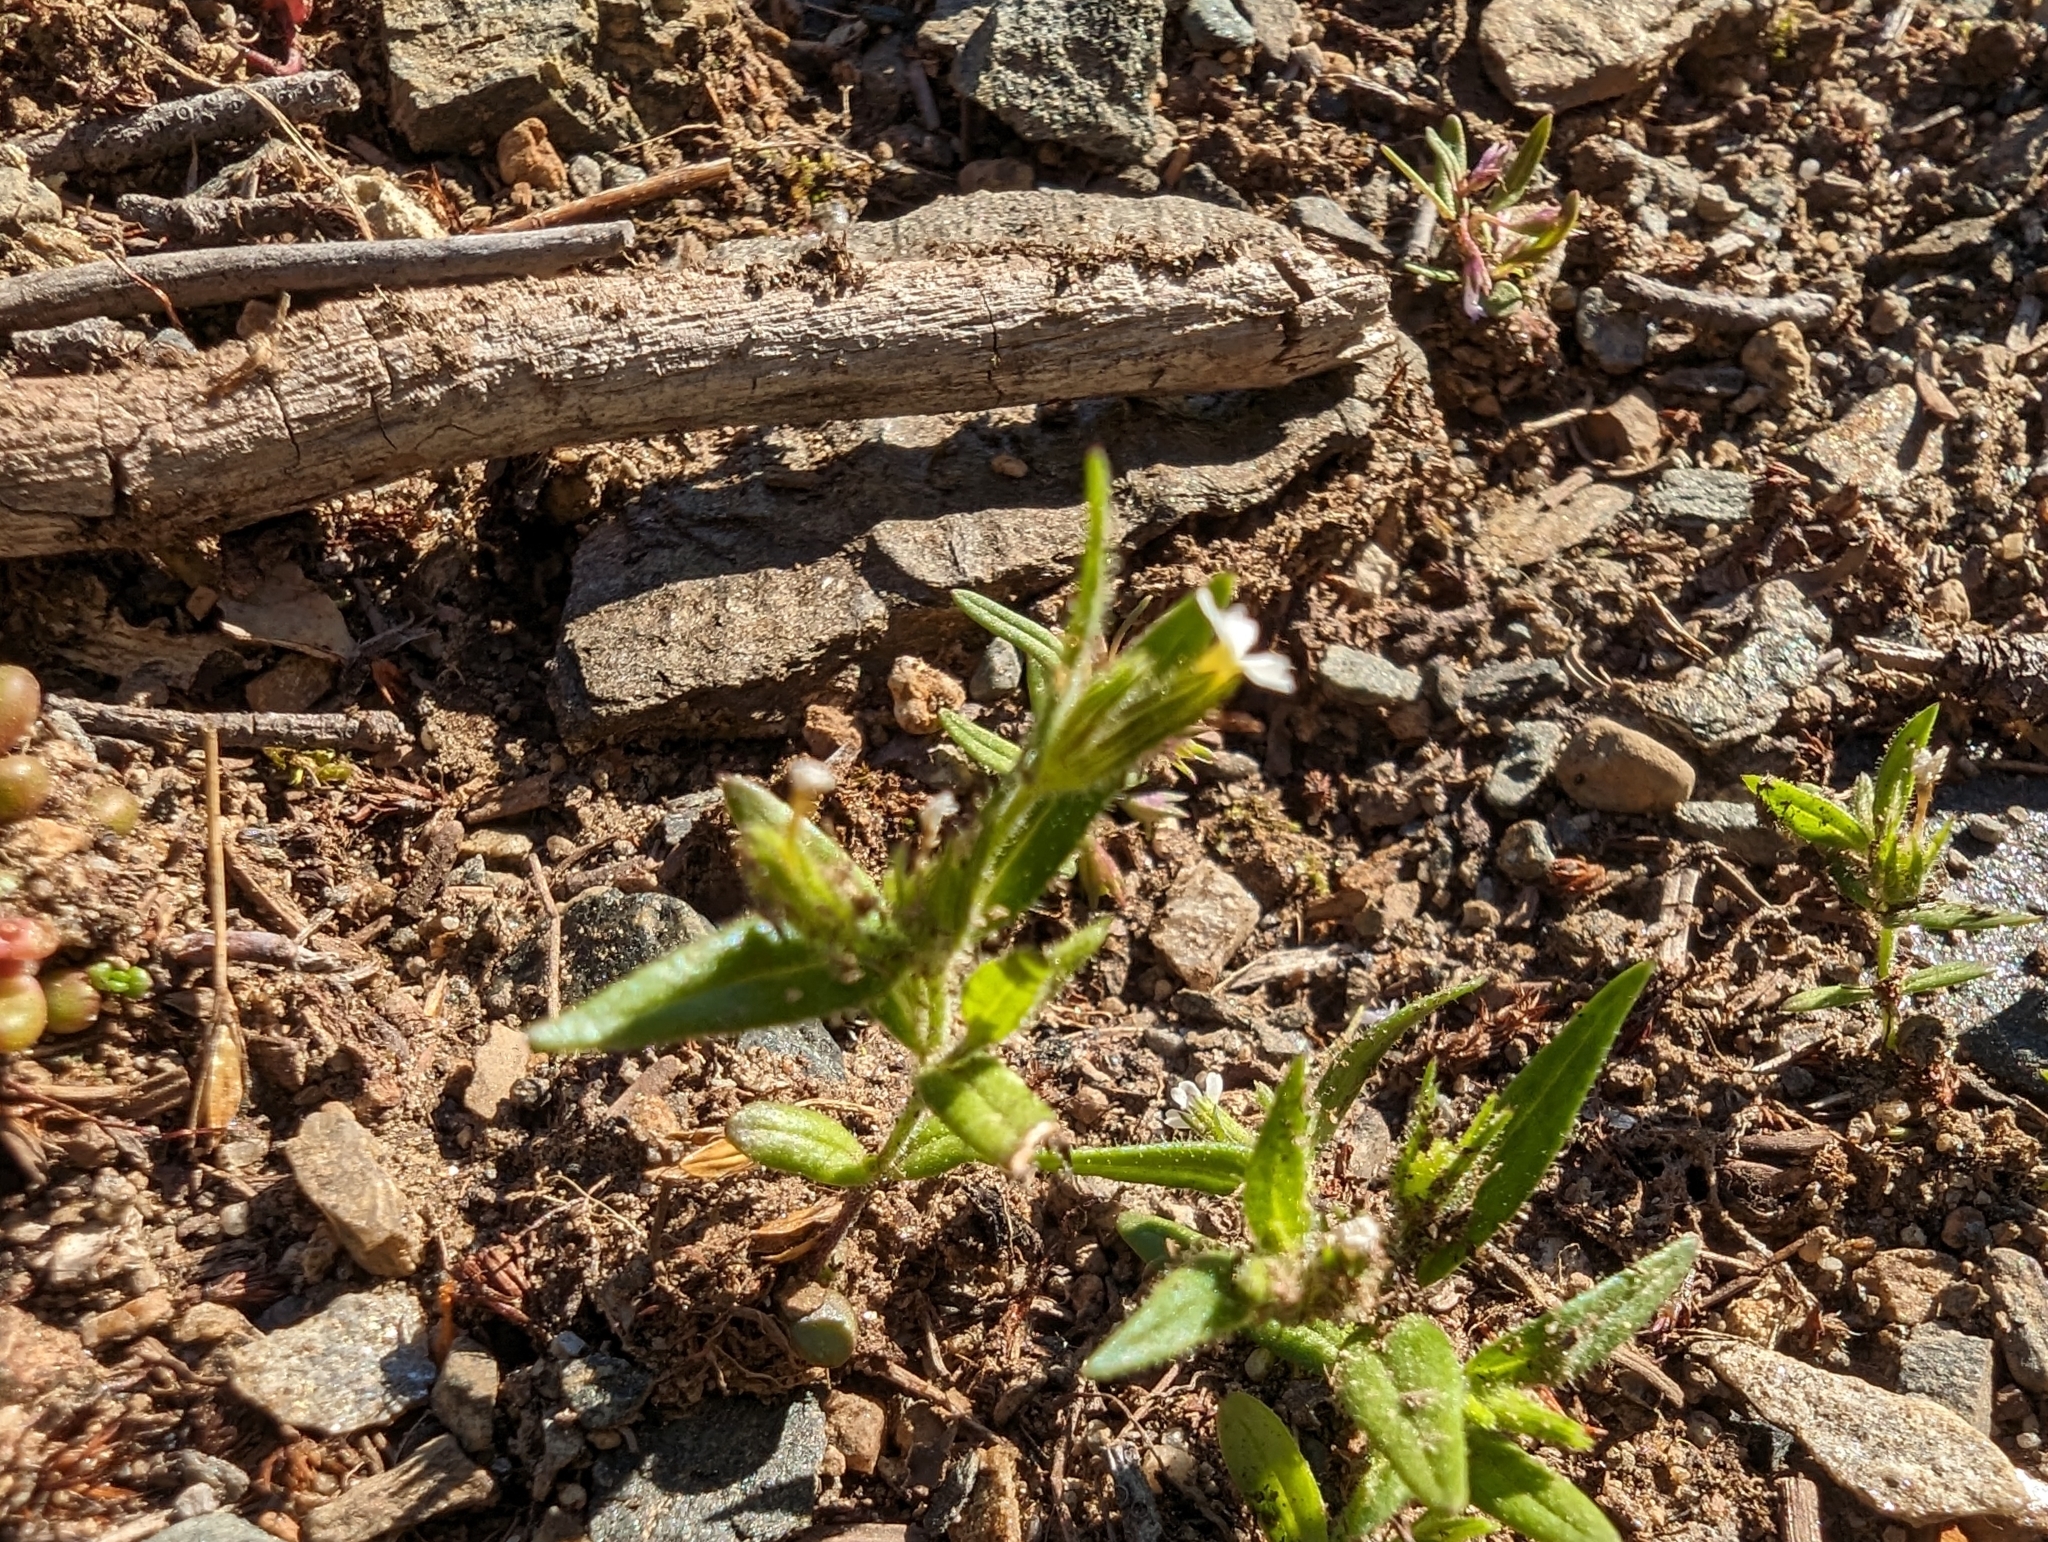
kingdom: Plantae
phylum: Tracheophyta
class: Magnoliopsida
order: Ericales
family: Polemoniaceae
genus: Phlox
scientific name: Phlox gracilis
